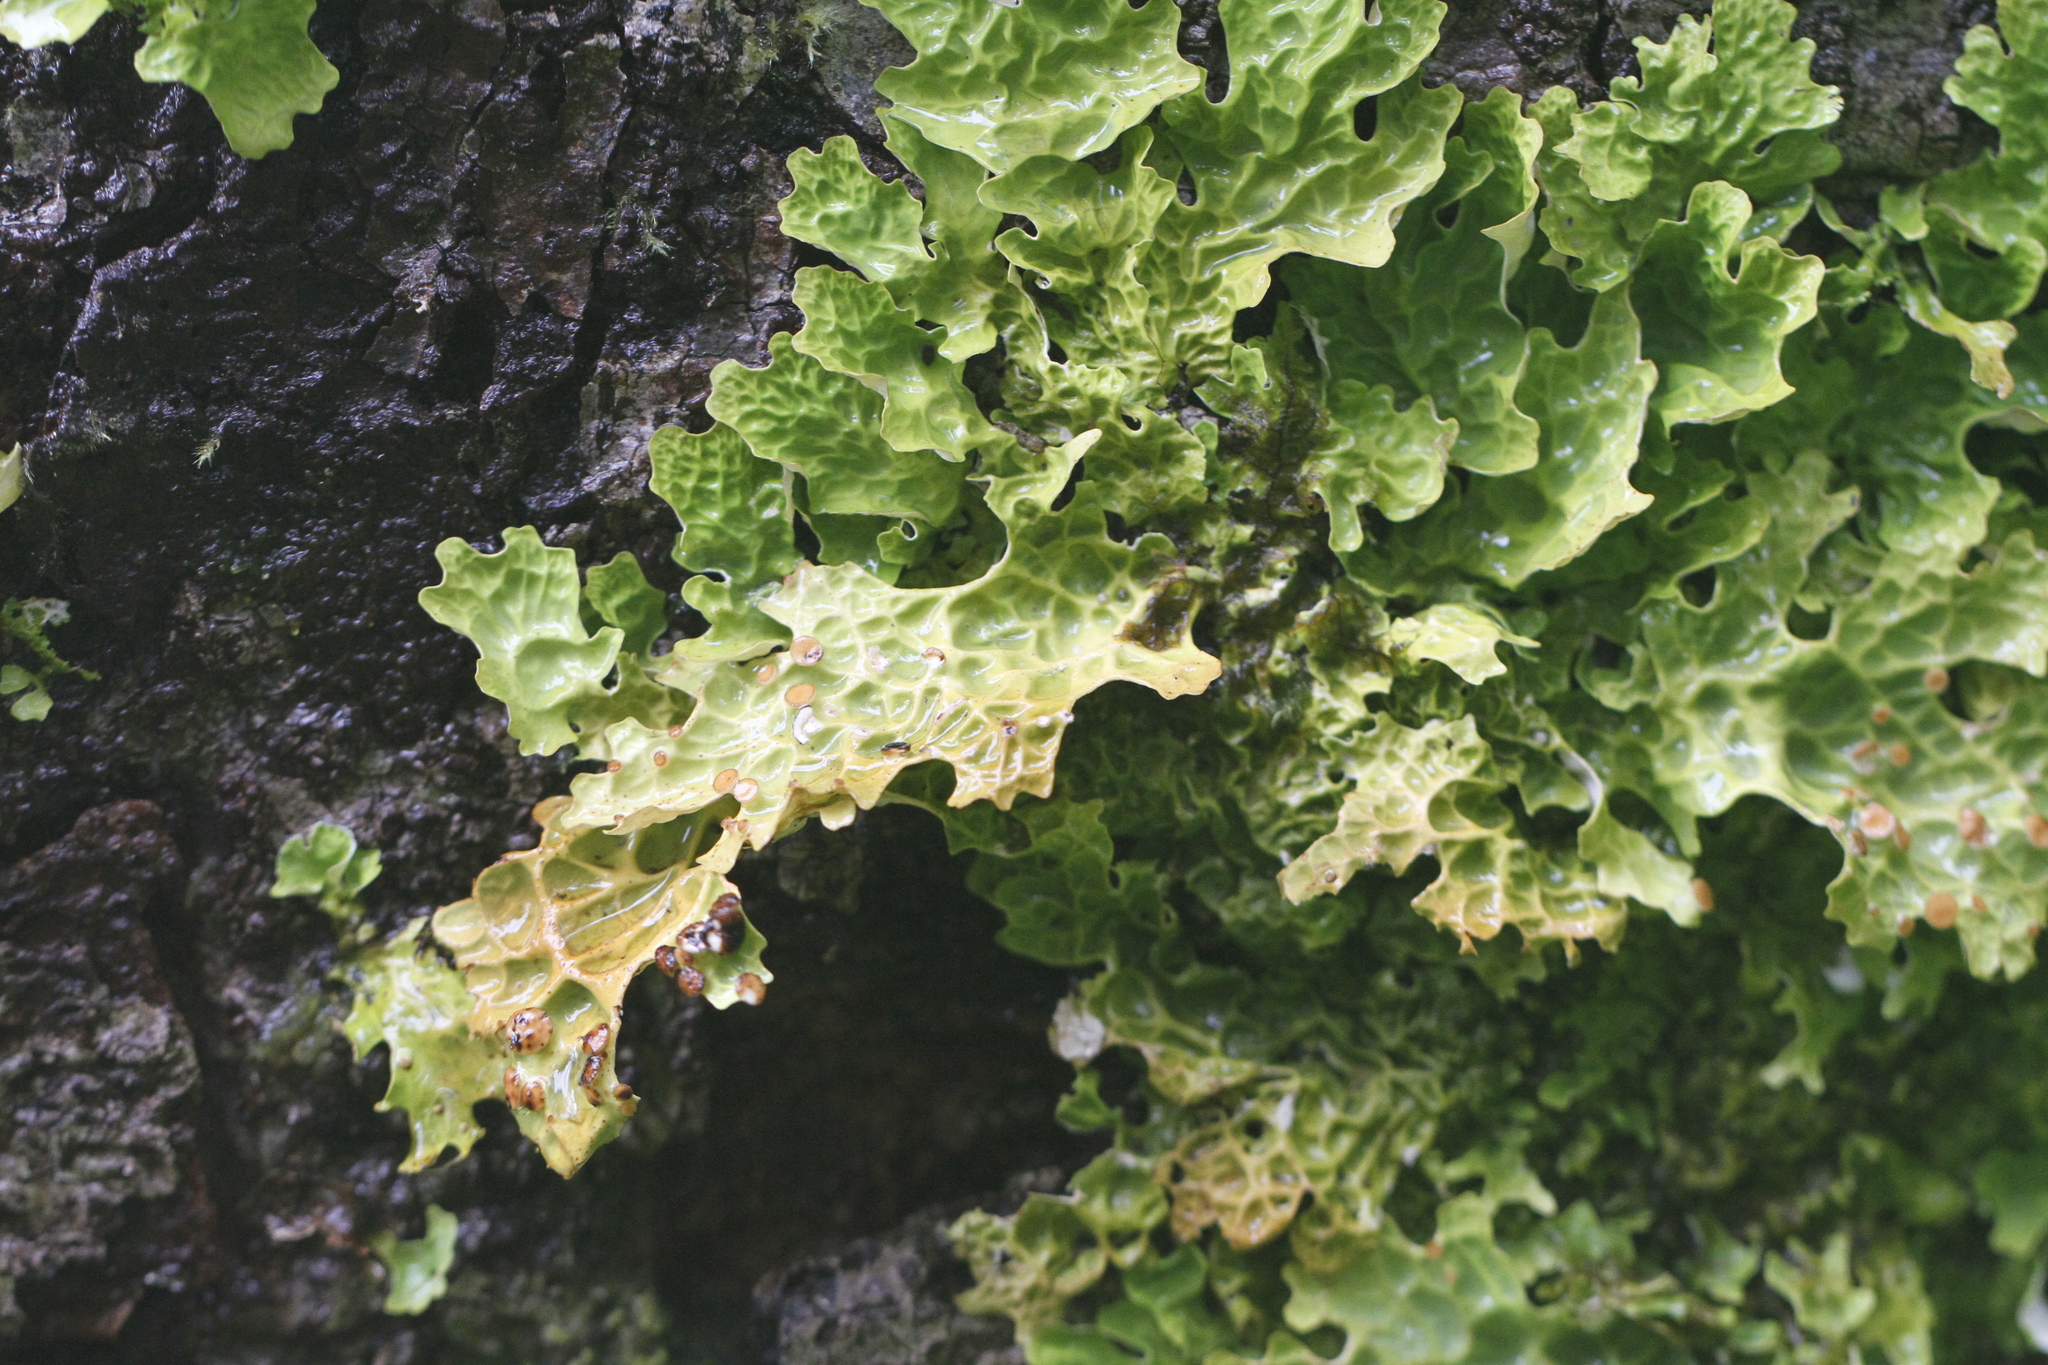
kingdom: Fungi
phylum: Ascomycota
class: Lecanoromycetes
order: Peltigerales
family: Lobariaceae
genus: Lobaria
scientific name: Lobaria linita
